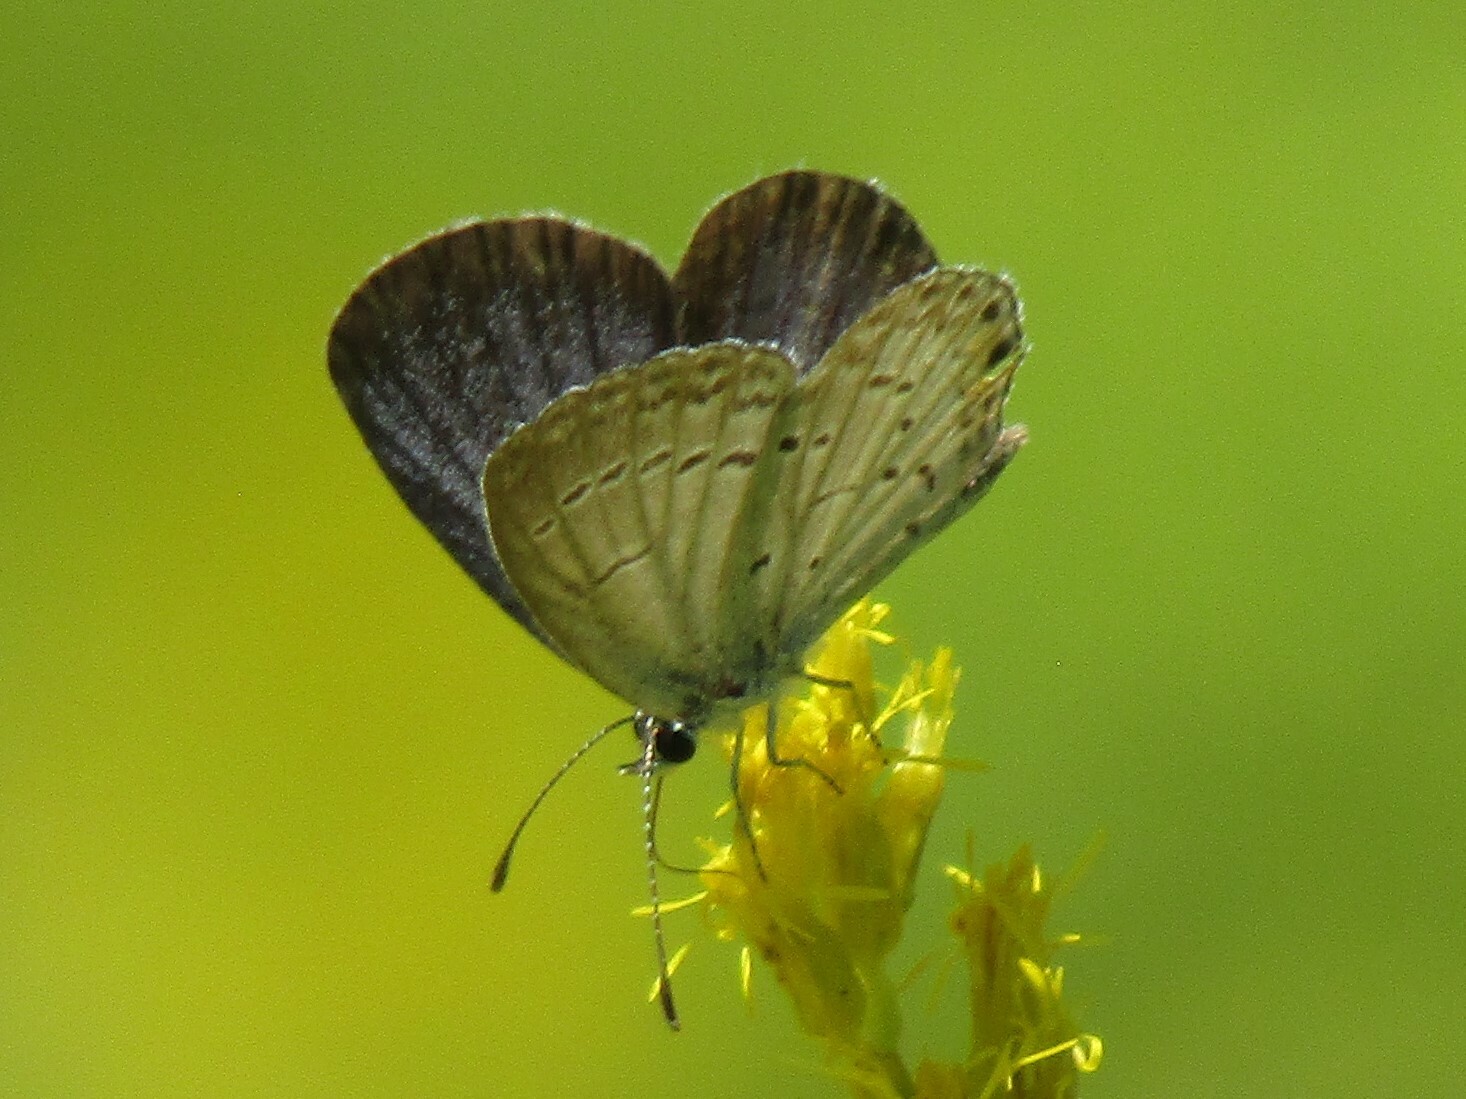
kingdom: Animalia
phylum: Arthropoda
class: Insecta
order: Lepidoptera
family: Lycaenidae
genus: Elkalyce
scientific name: Elkalyce comyntas
